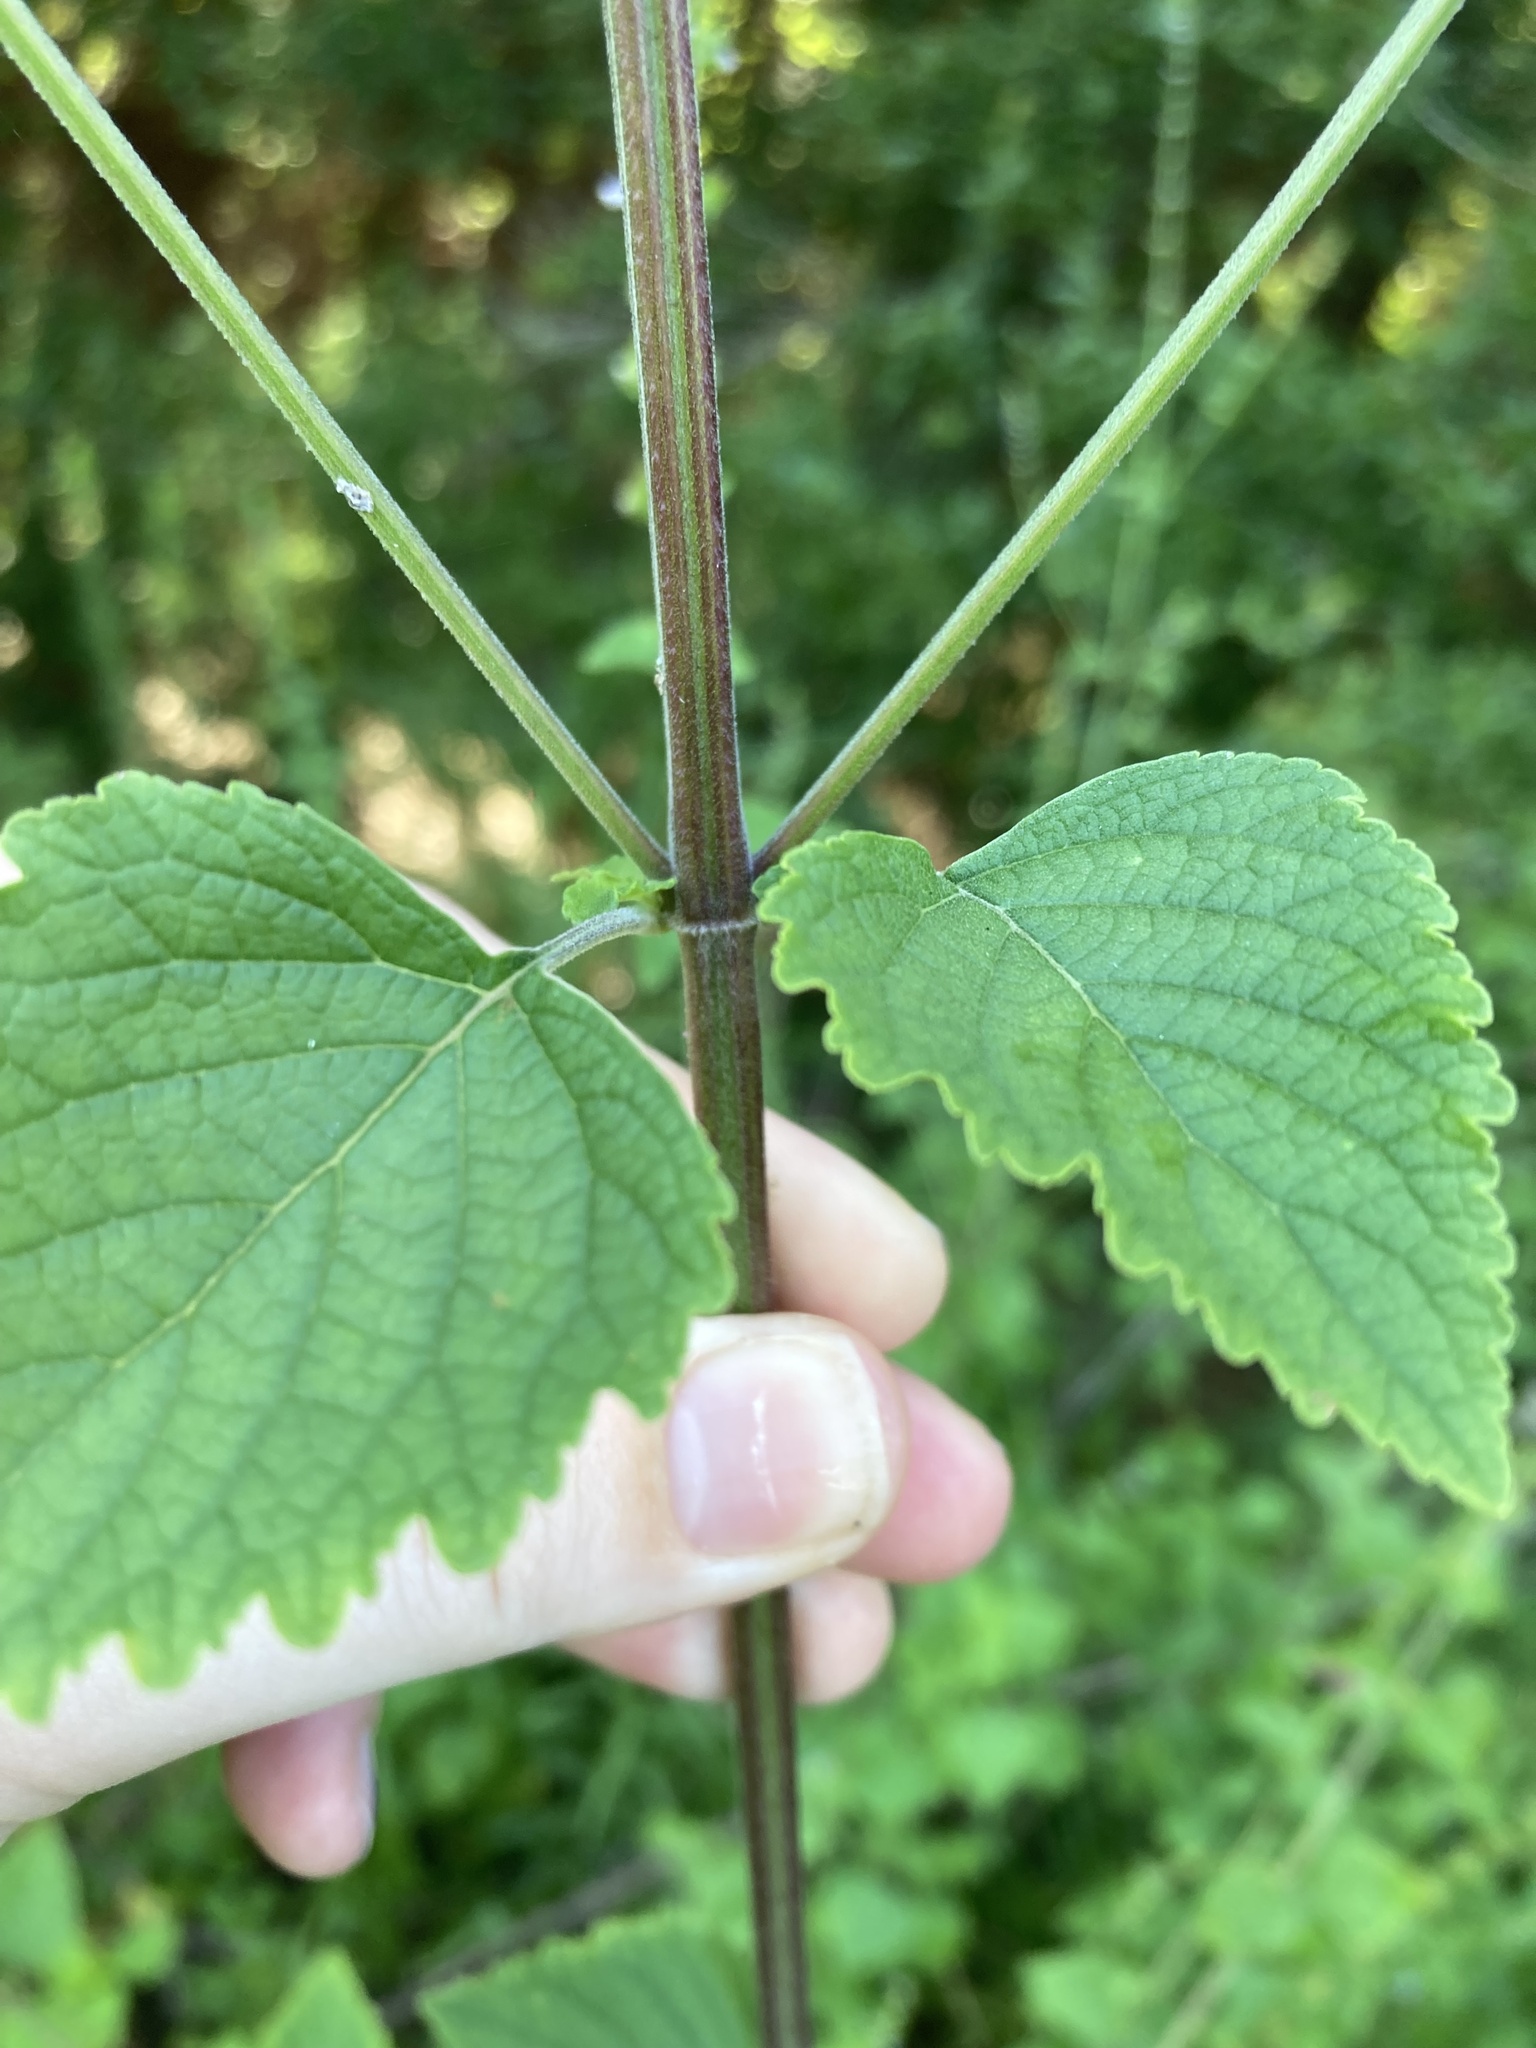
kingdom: Plantae
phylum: Tracheophyta
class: Magnoliopsida
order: Lamiales
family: Lamiaceae
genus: Cantinoa
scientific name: Cantinoa mutabilis
